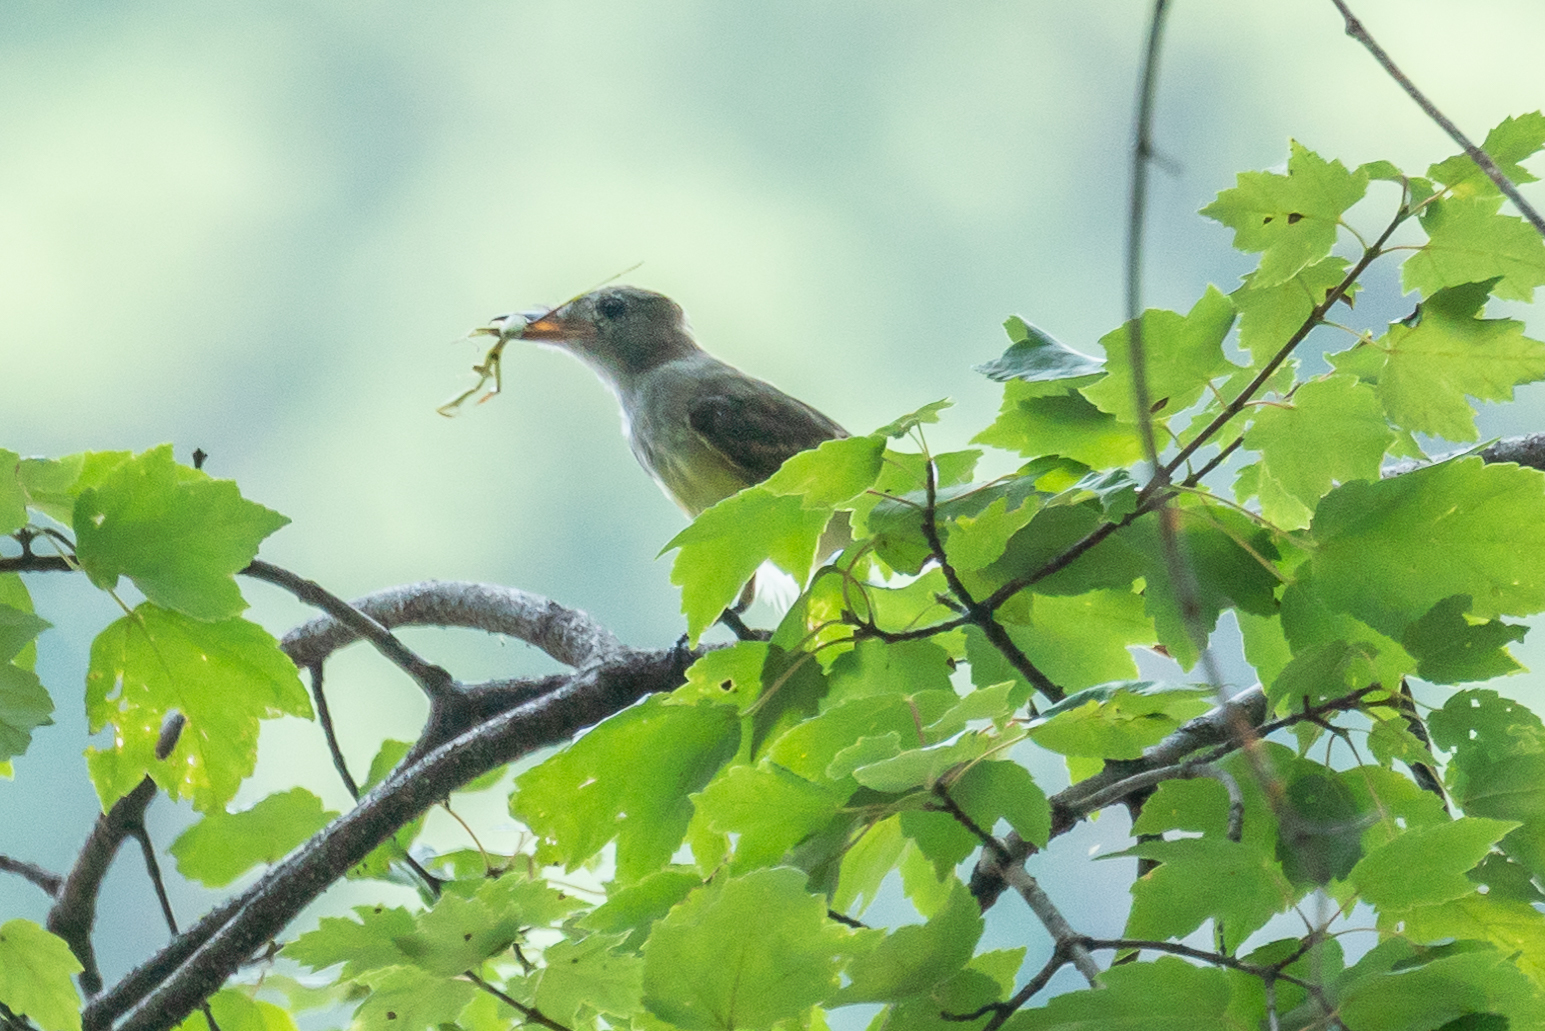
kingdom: Animalia
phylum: Chordata
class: Aves
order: Passeriformes
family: Tyrannidae
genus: Myiarchus
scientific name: Myiarchus crinitus
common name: Great crested flycatcher
